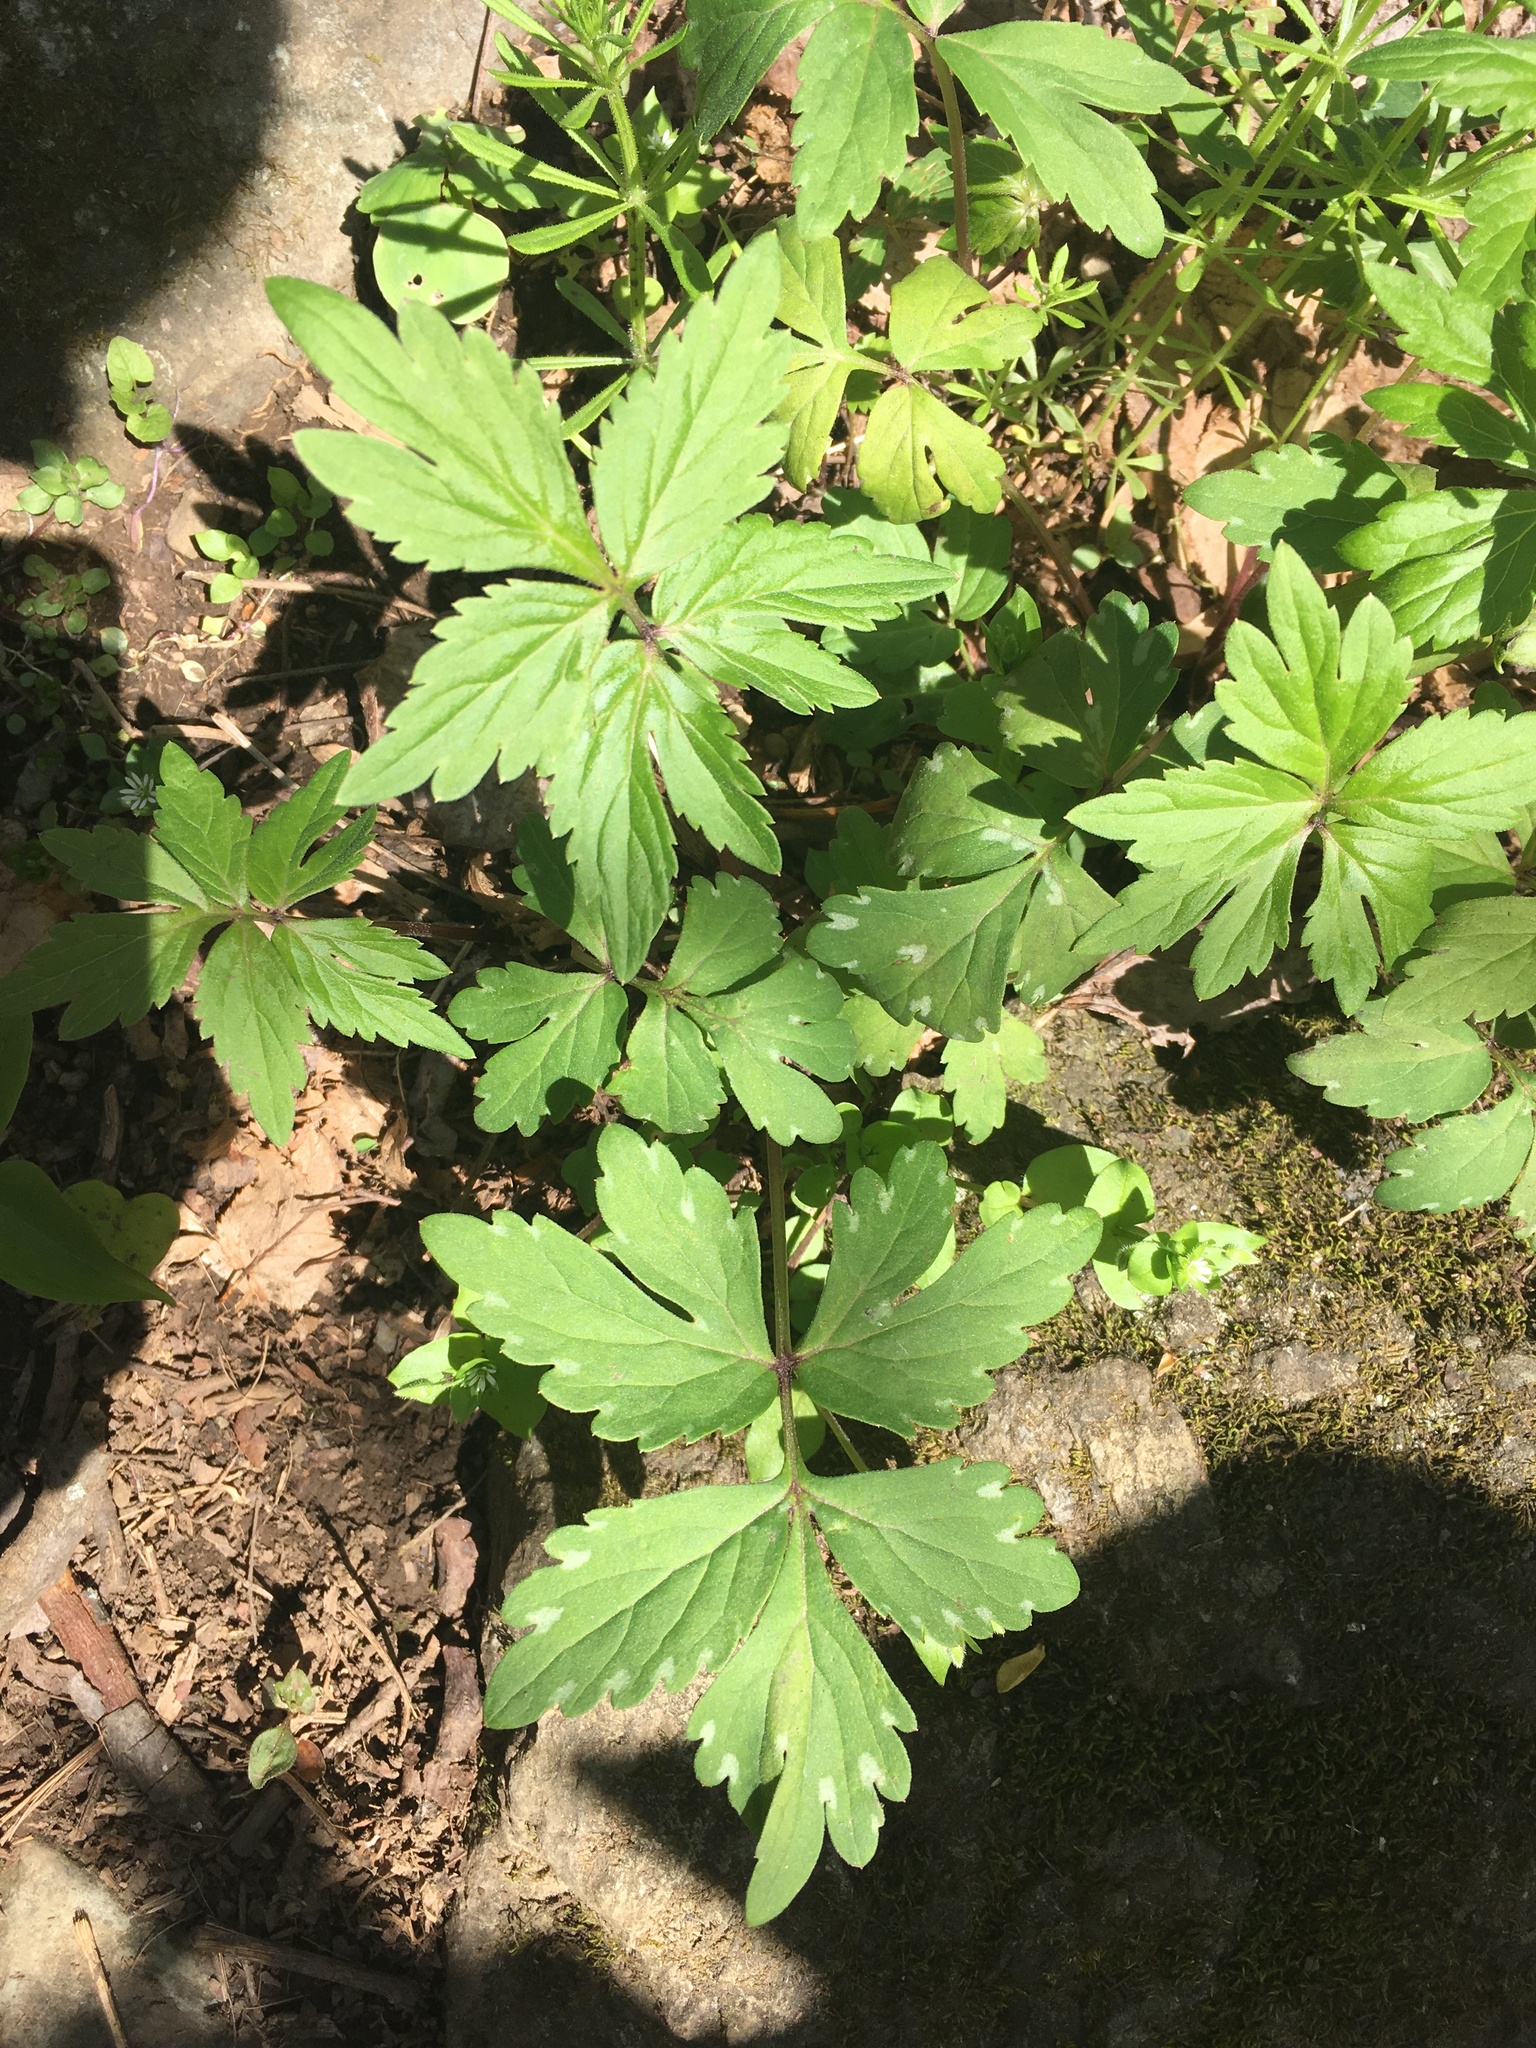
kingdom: Plantae
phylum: Tracheophyta
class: Magnoliopsida
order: Boraginales
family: Hydrophyllaceae
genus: Hydrophyllum
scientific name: Hydrophyllum virginianum
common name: Virginia waterleaf
